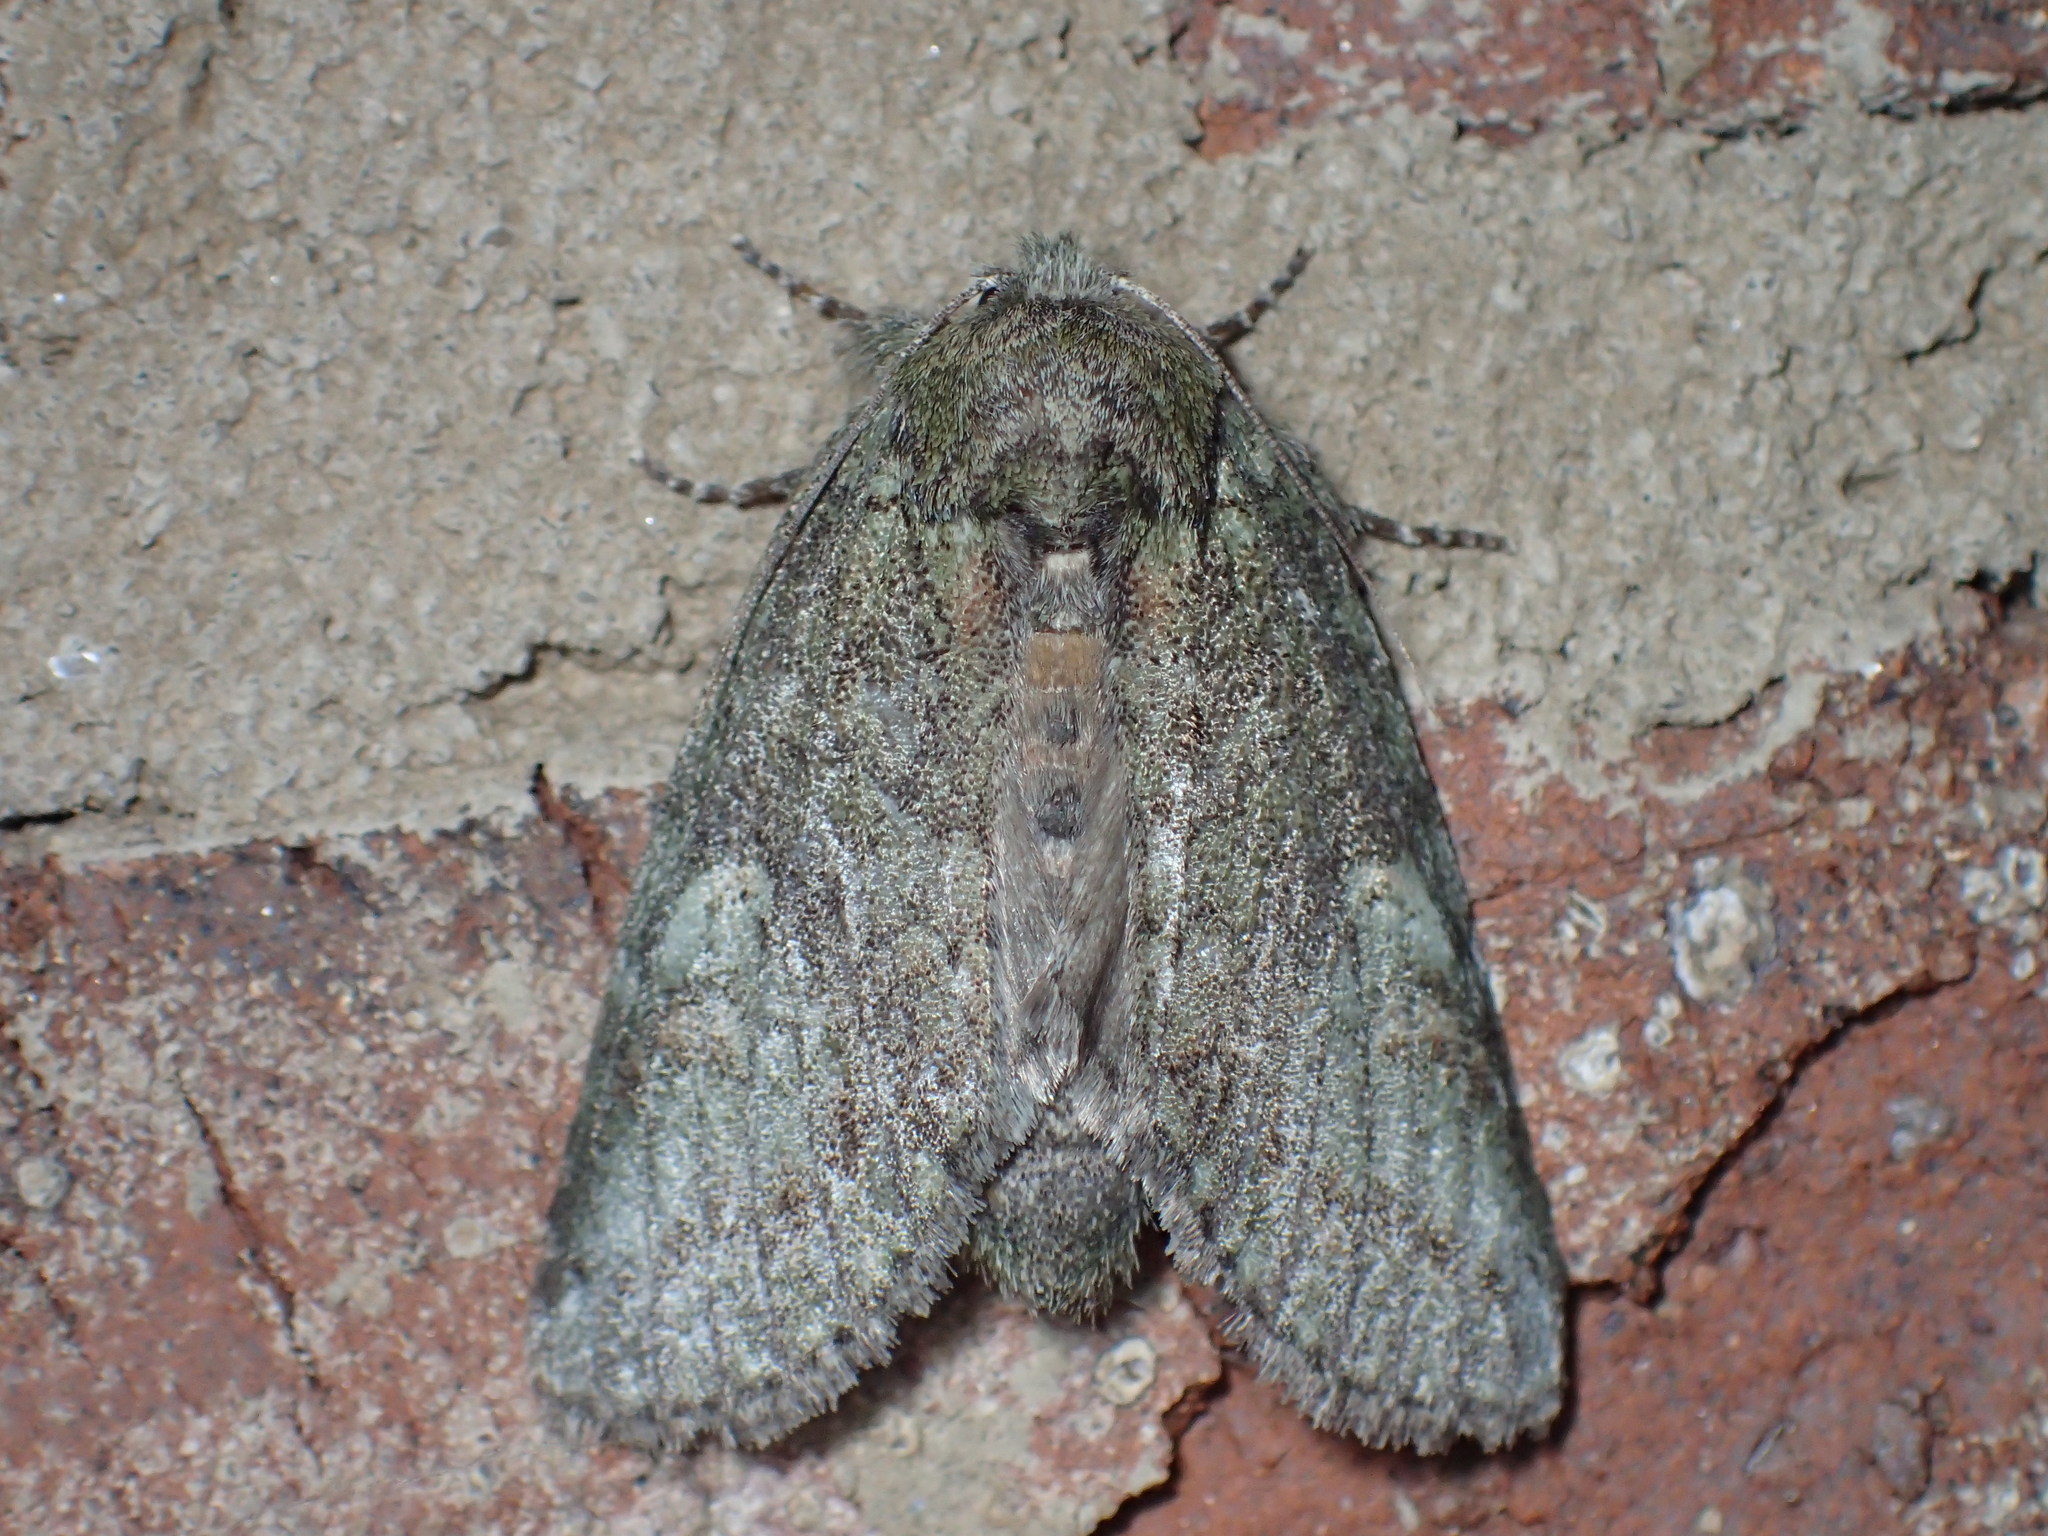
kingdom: Animalia
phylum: Arthropoda
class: Insecta
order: Lepidoptera
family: Notodontidae
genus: Disphragis
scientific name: Disphragis Cecrita guttivitta
